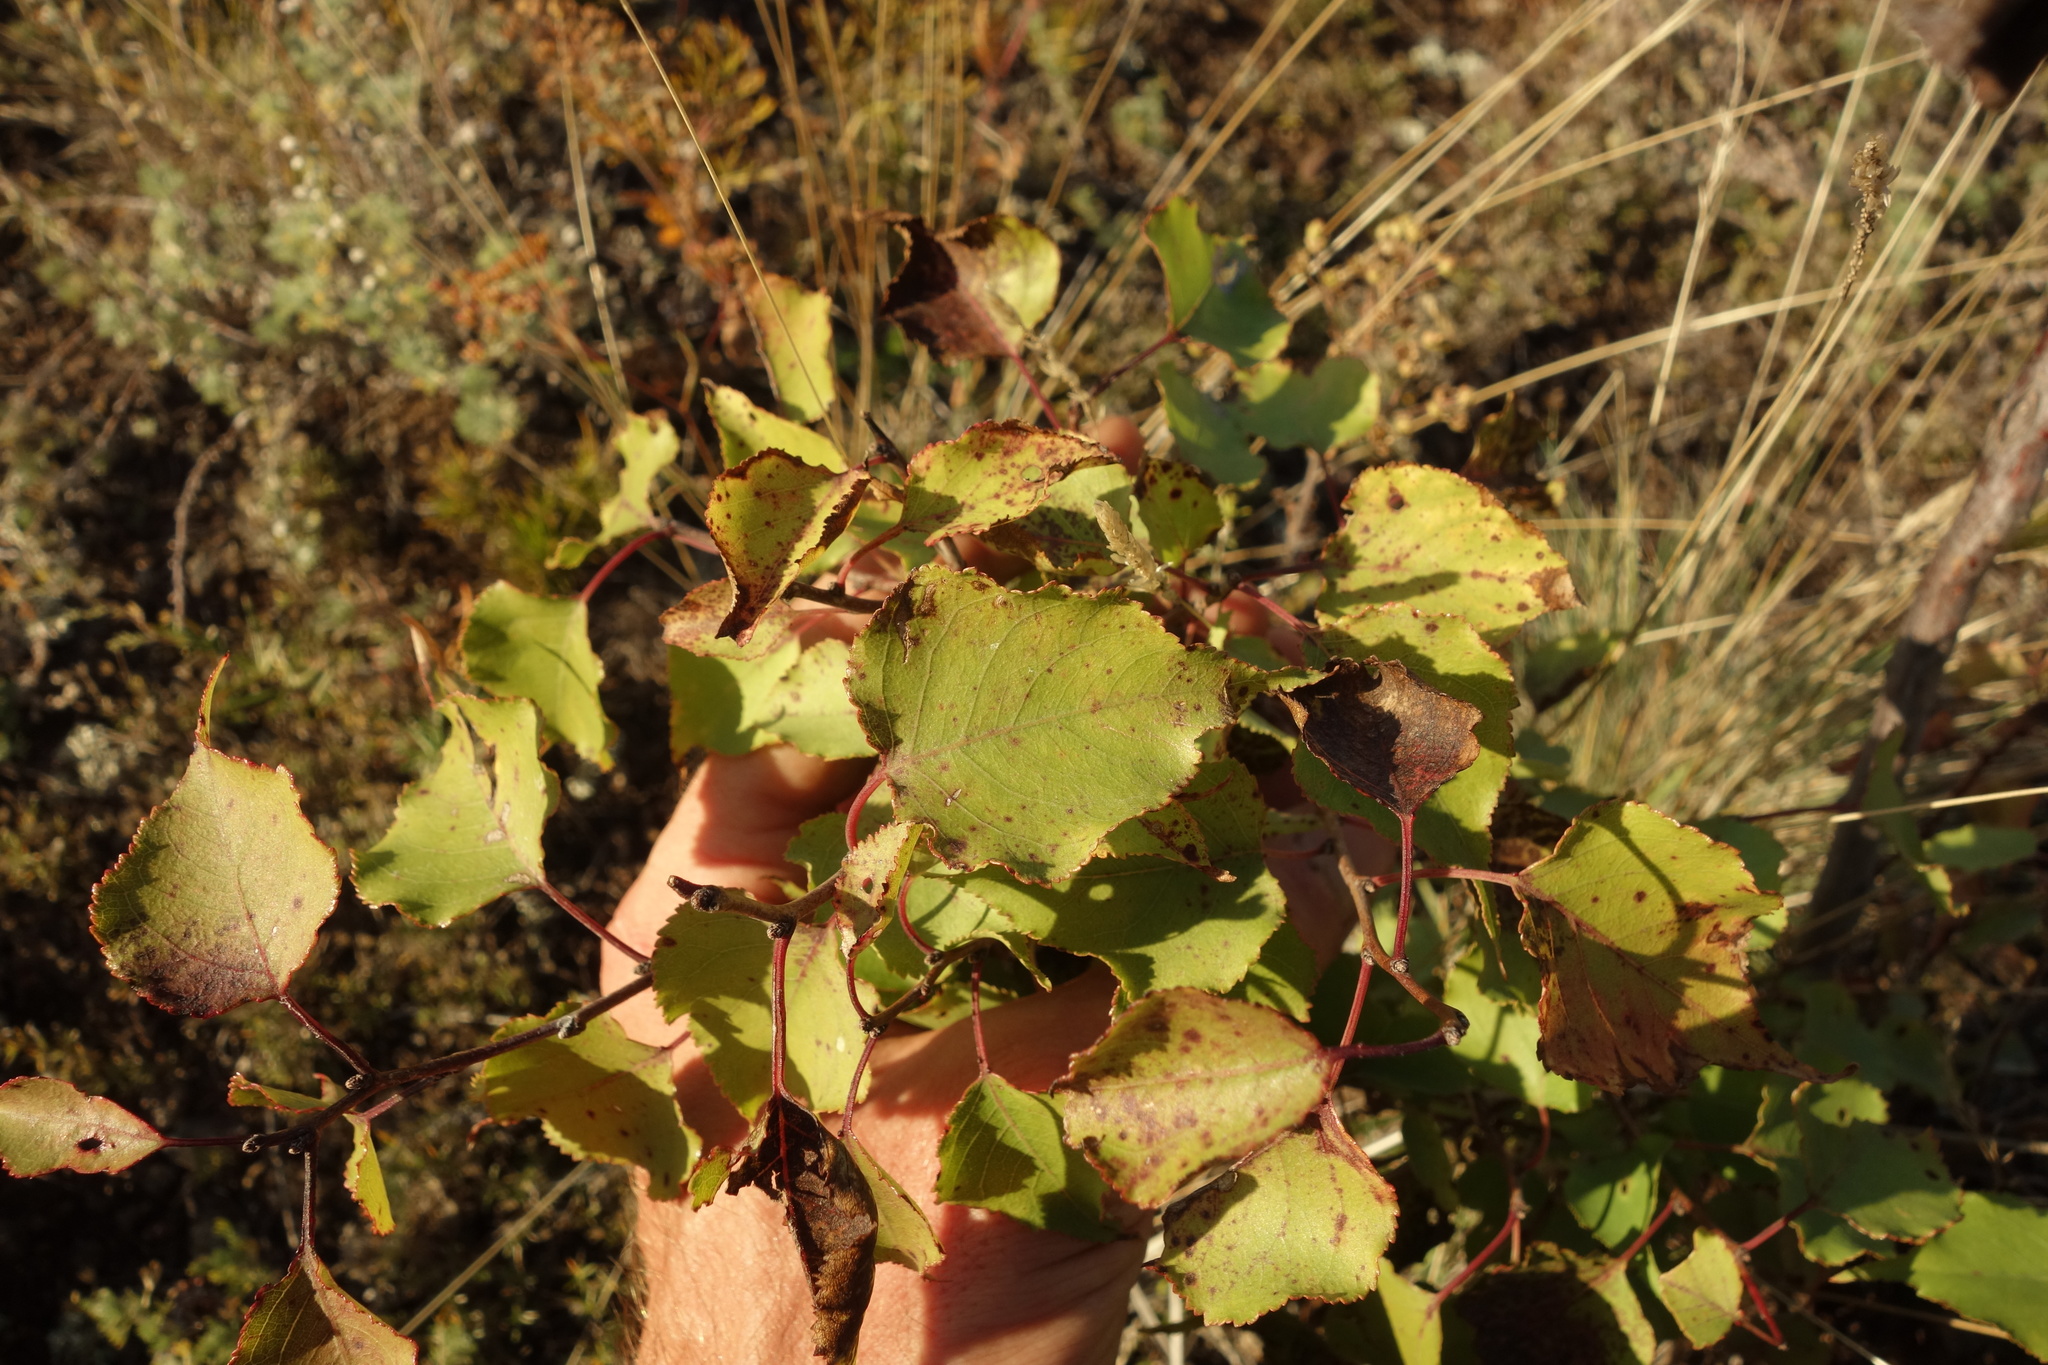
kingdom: Plantae
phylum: Tracheophyta
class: Magnoliopsida
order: Rosales
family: Rosaceae
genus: Prunus
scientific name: Prunus sibirica
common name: Siberian apricot
